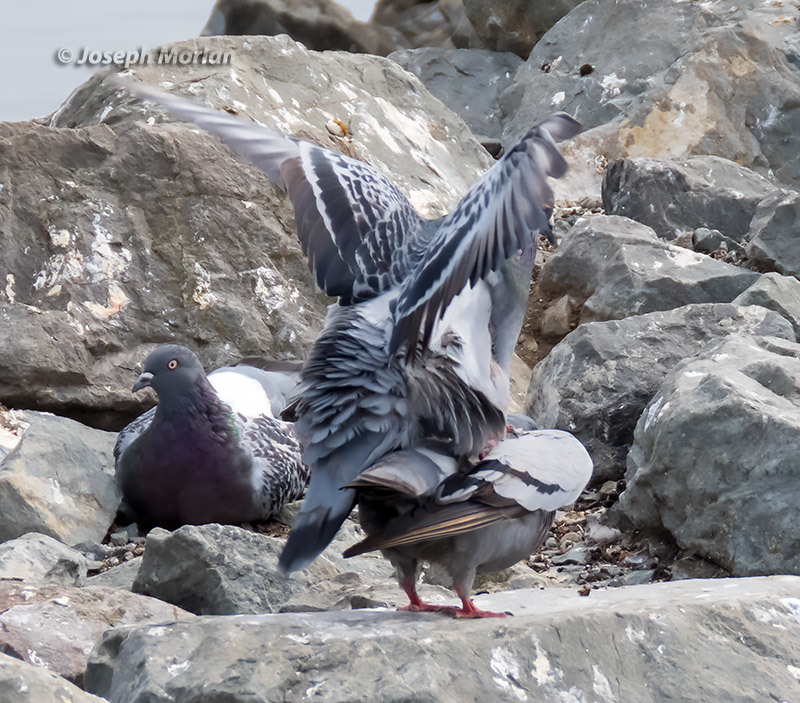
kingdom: Animalia
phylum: Chordata
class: Aves
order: Columbiformes
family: Columbidae
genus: Columba
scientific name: Columba livia
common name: Rock pigeon
